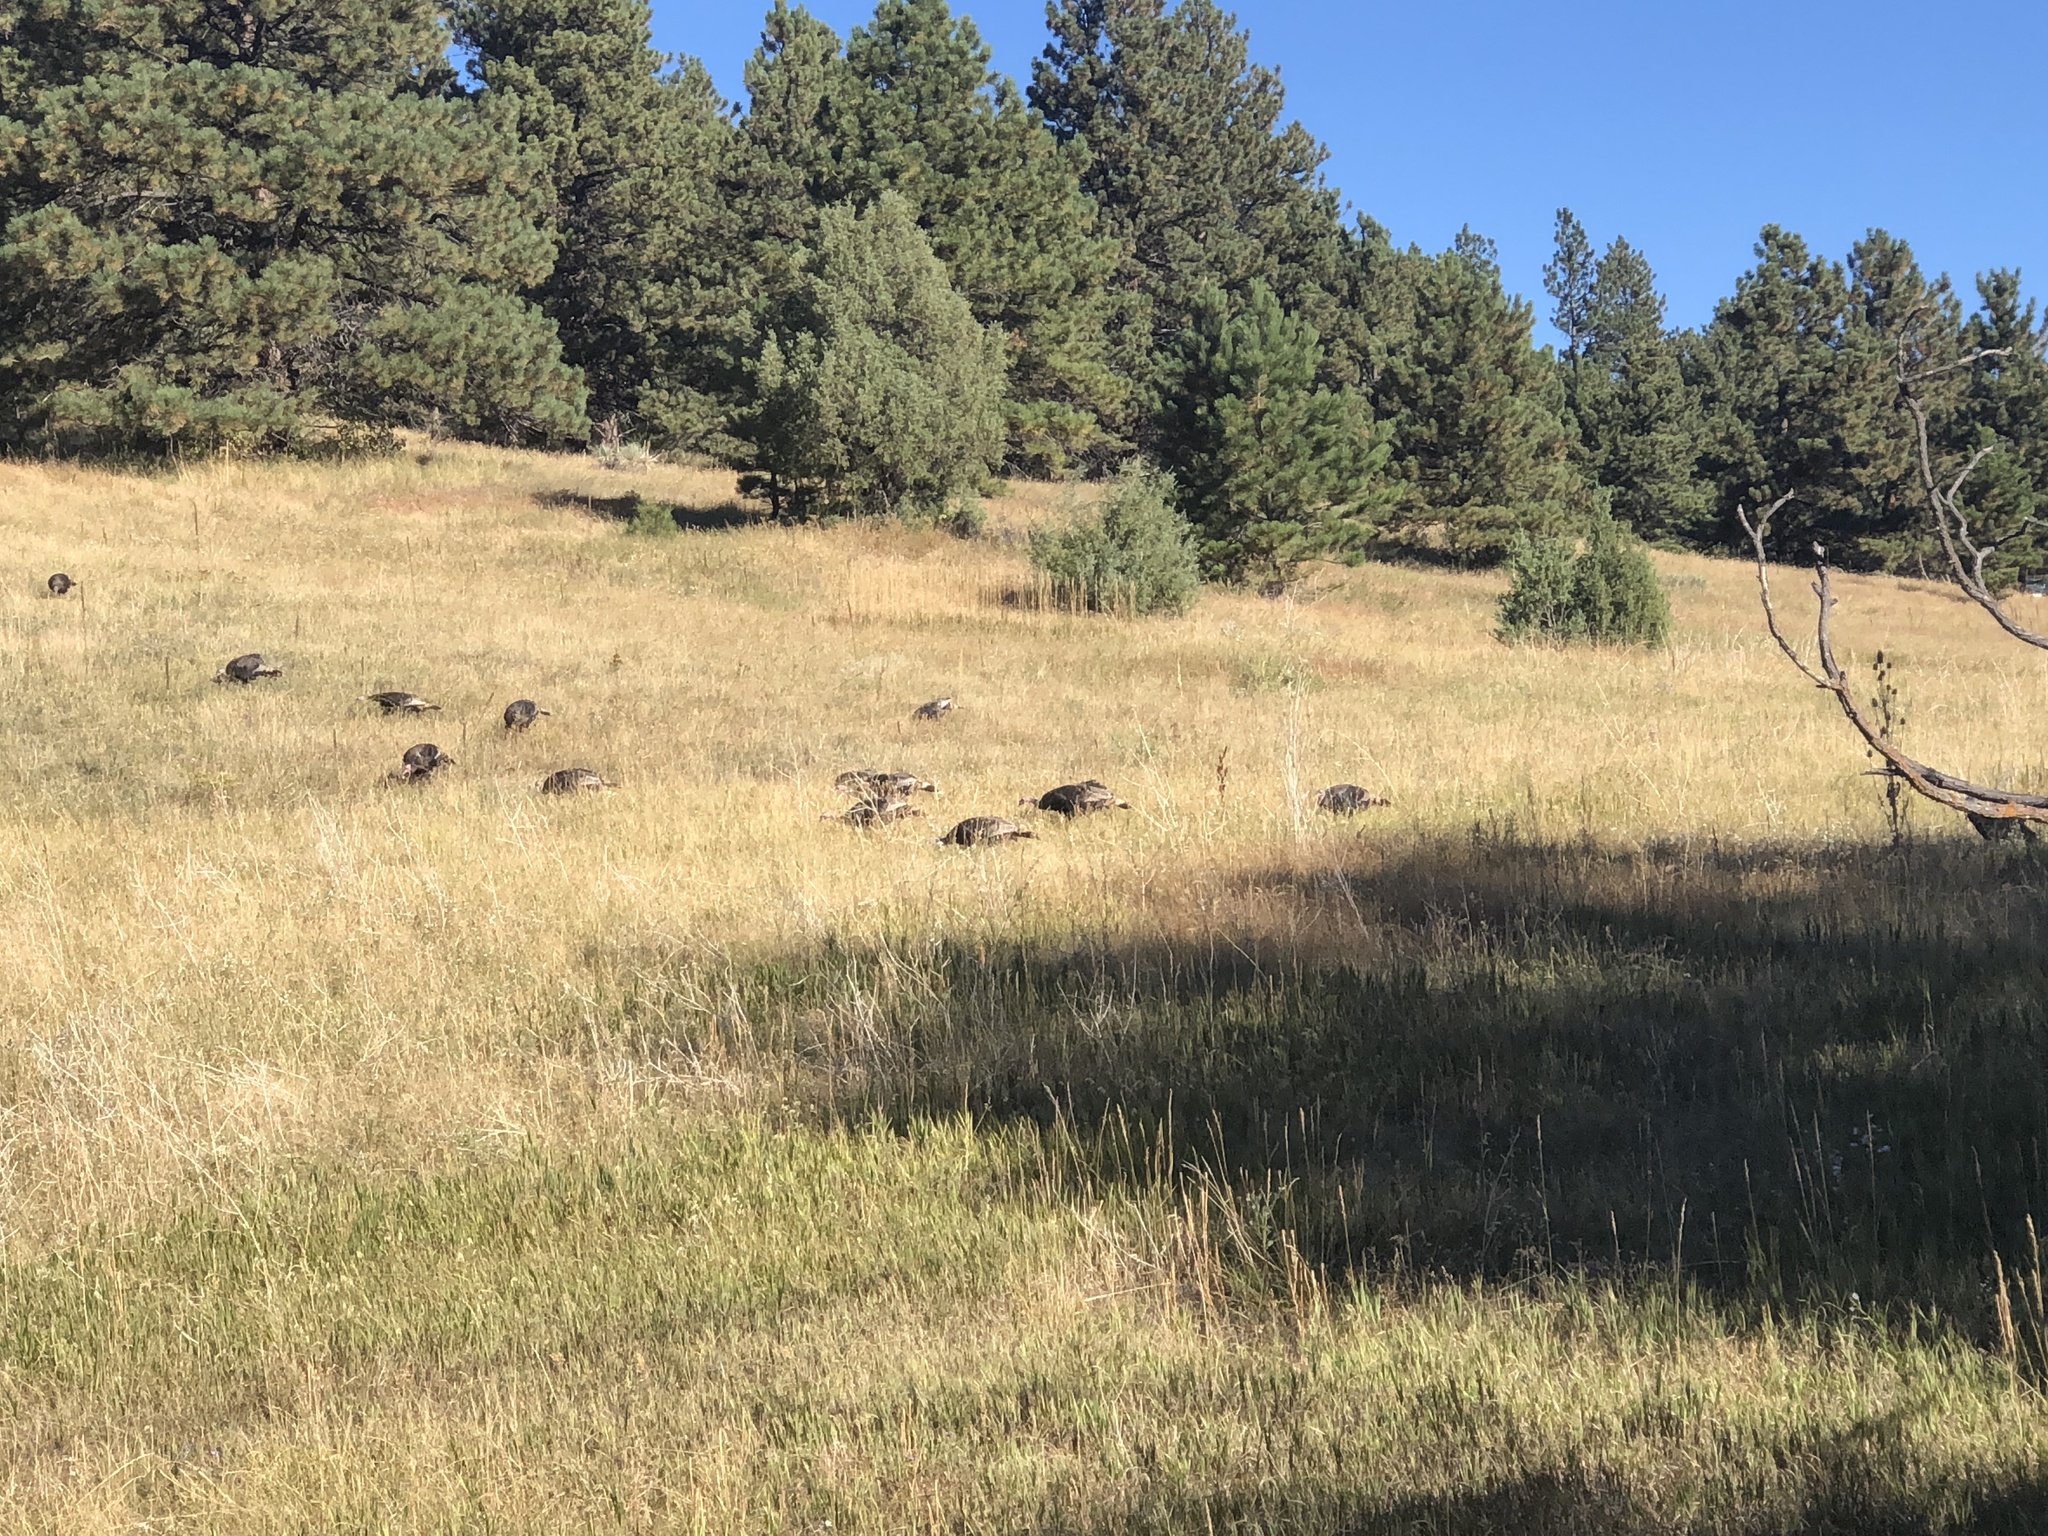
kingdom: Animalia
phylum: Chordata
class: Aves
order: Galliformes
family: Phasianidae
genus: Meleagris
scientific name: Meleagris gallopavo
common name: Wild turkey
